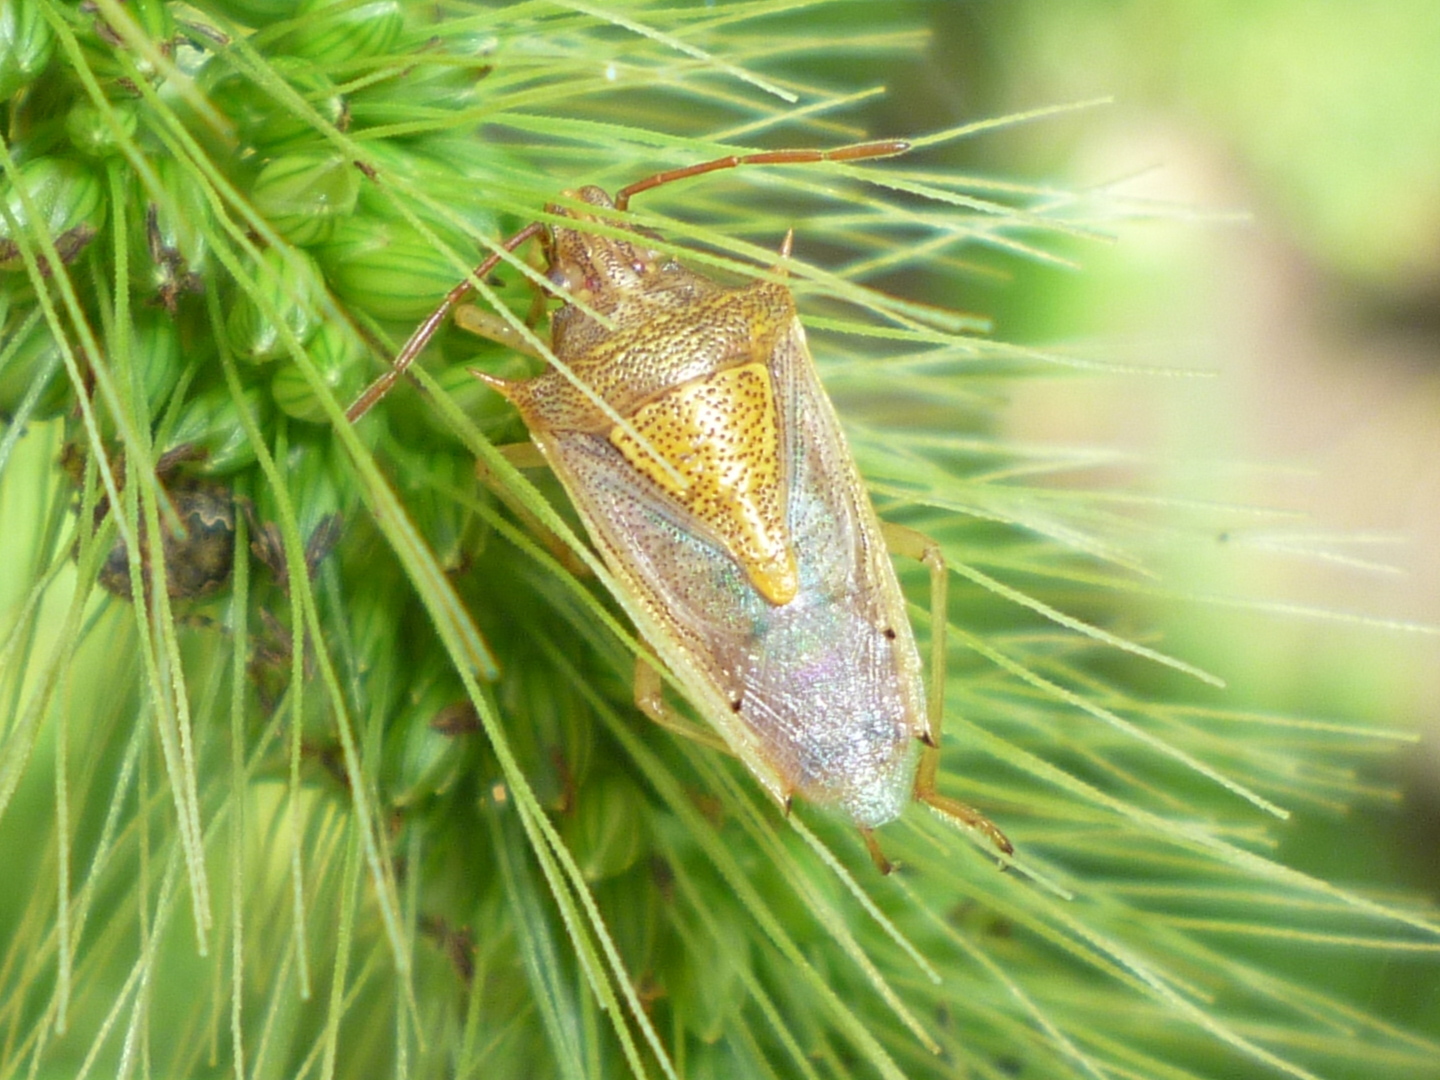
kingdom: Animalia
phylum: Arthropoda
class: Insecta
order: Hemiptera
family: Pentatomidae
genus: Oebalus
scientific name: Oebalus pugnax
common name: Rice stink bug
